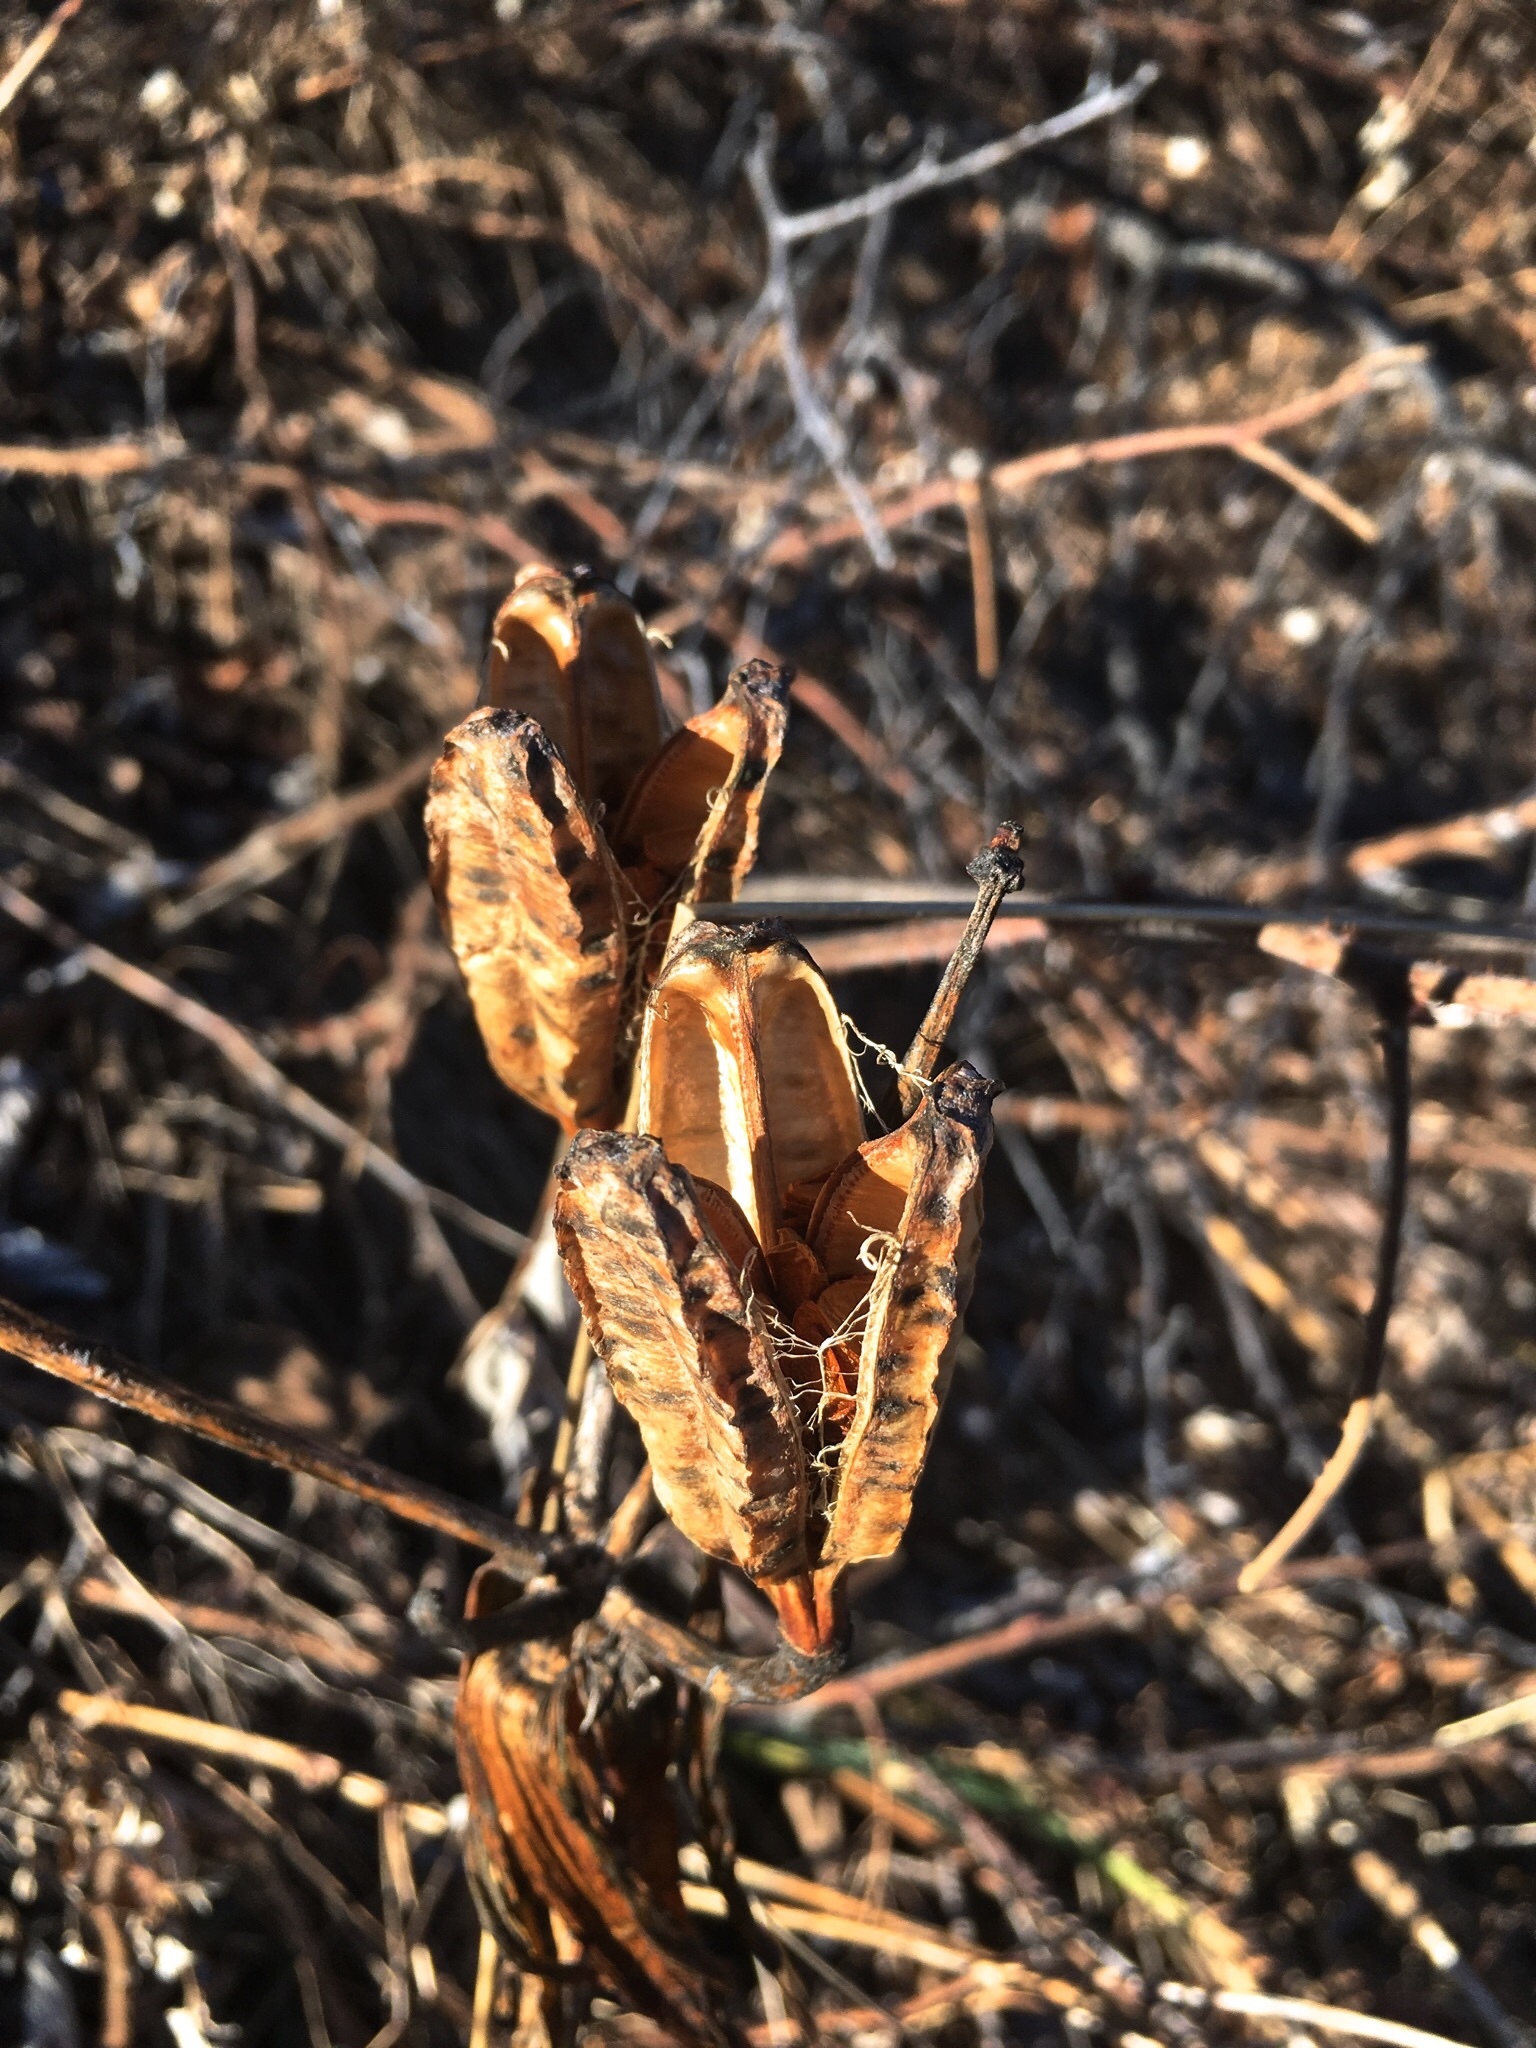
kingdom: Plantae
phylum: Tracheophyta
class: Liliopsida
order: Liliales
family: Liliaceae
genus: Lilium
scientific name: Lilium bulbiferum
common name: Orange lily
